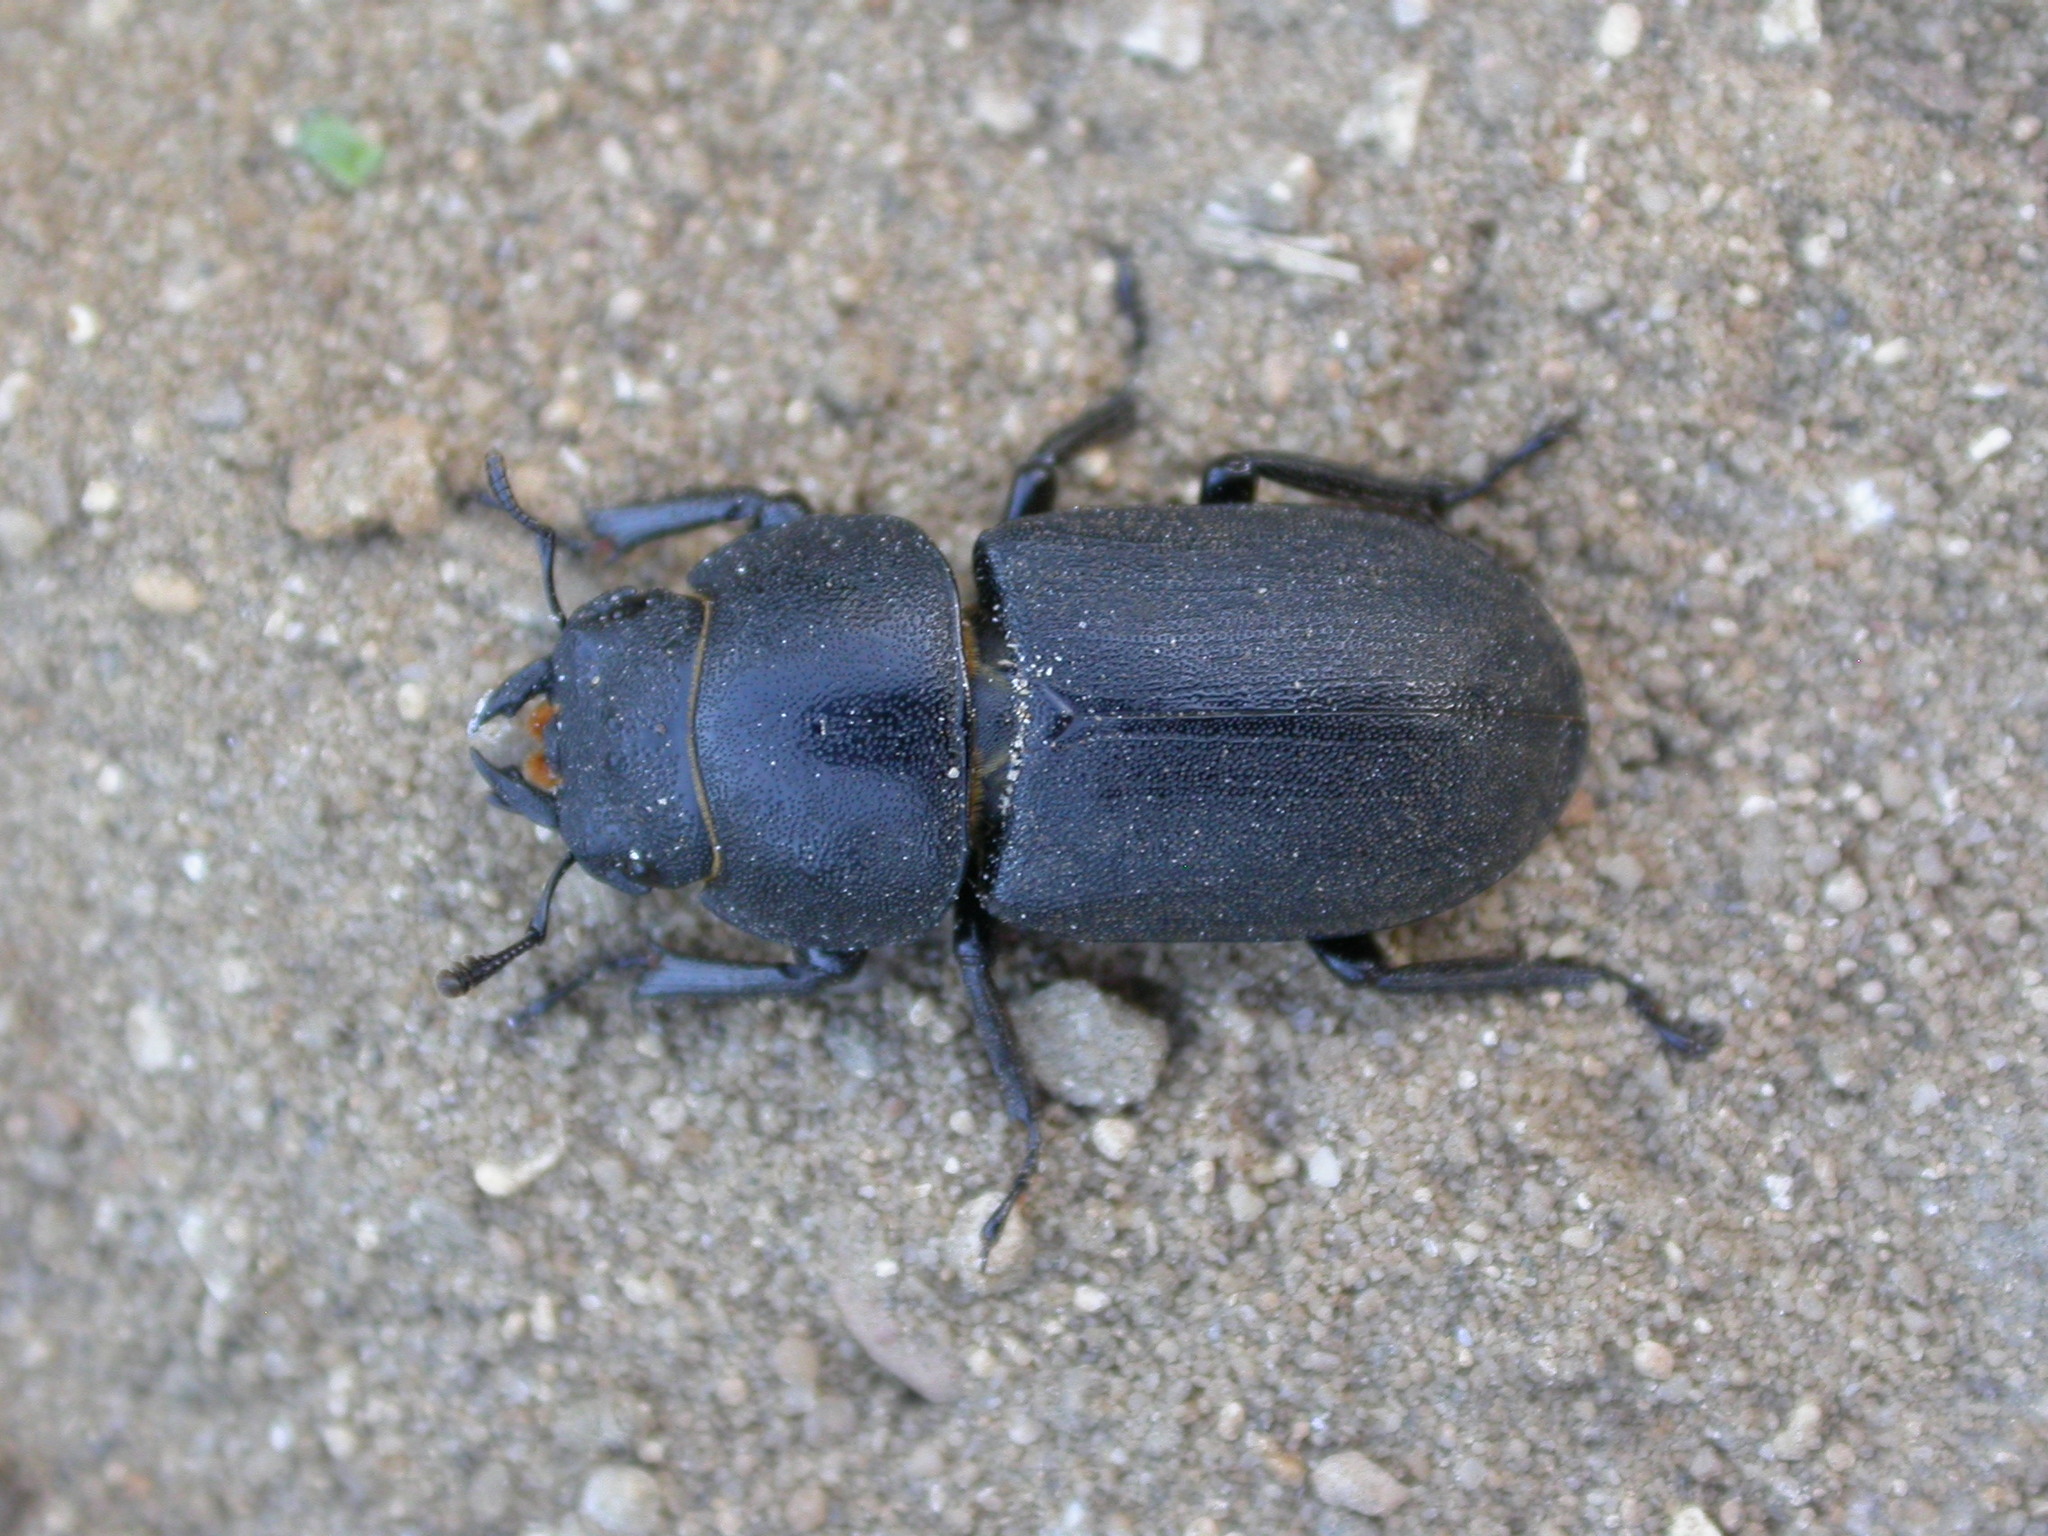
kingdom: Animalia
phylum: Arthropoda
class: Insecta
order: Coleoptera
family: Lucanidae
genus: Dorcus
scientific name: Dorcus parallelipipedus
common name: Lesser stag beetle
